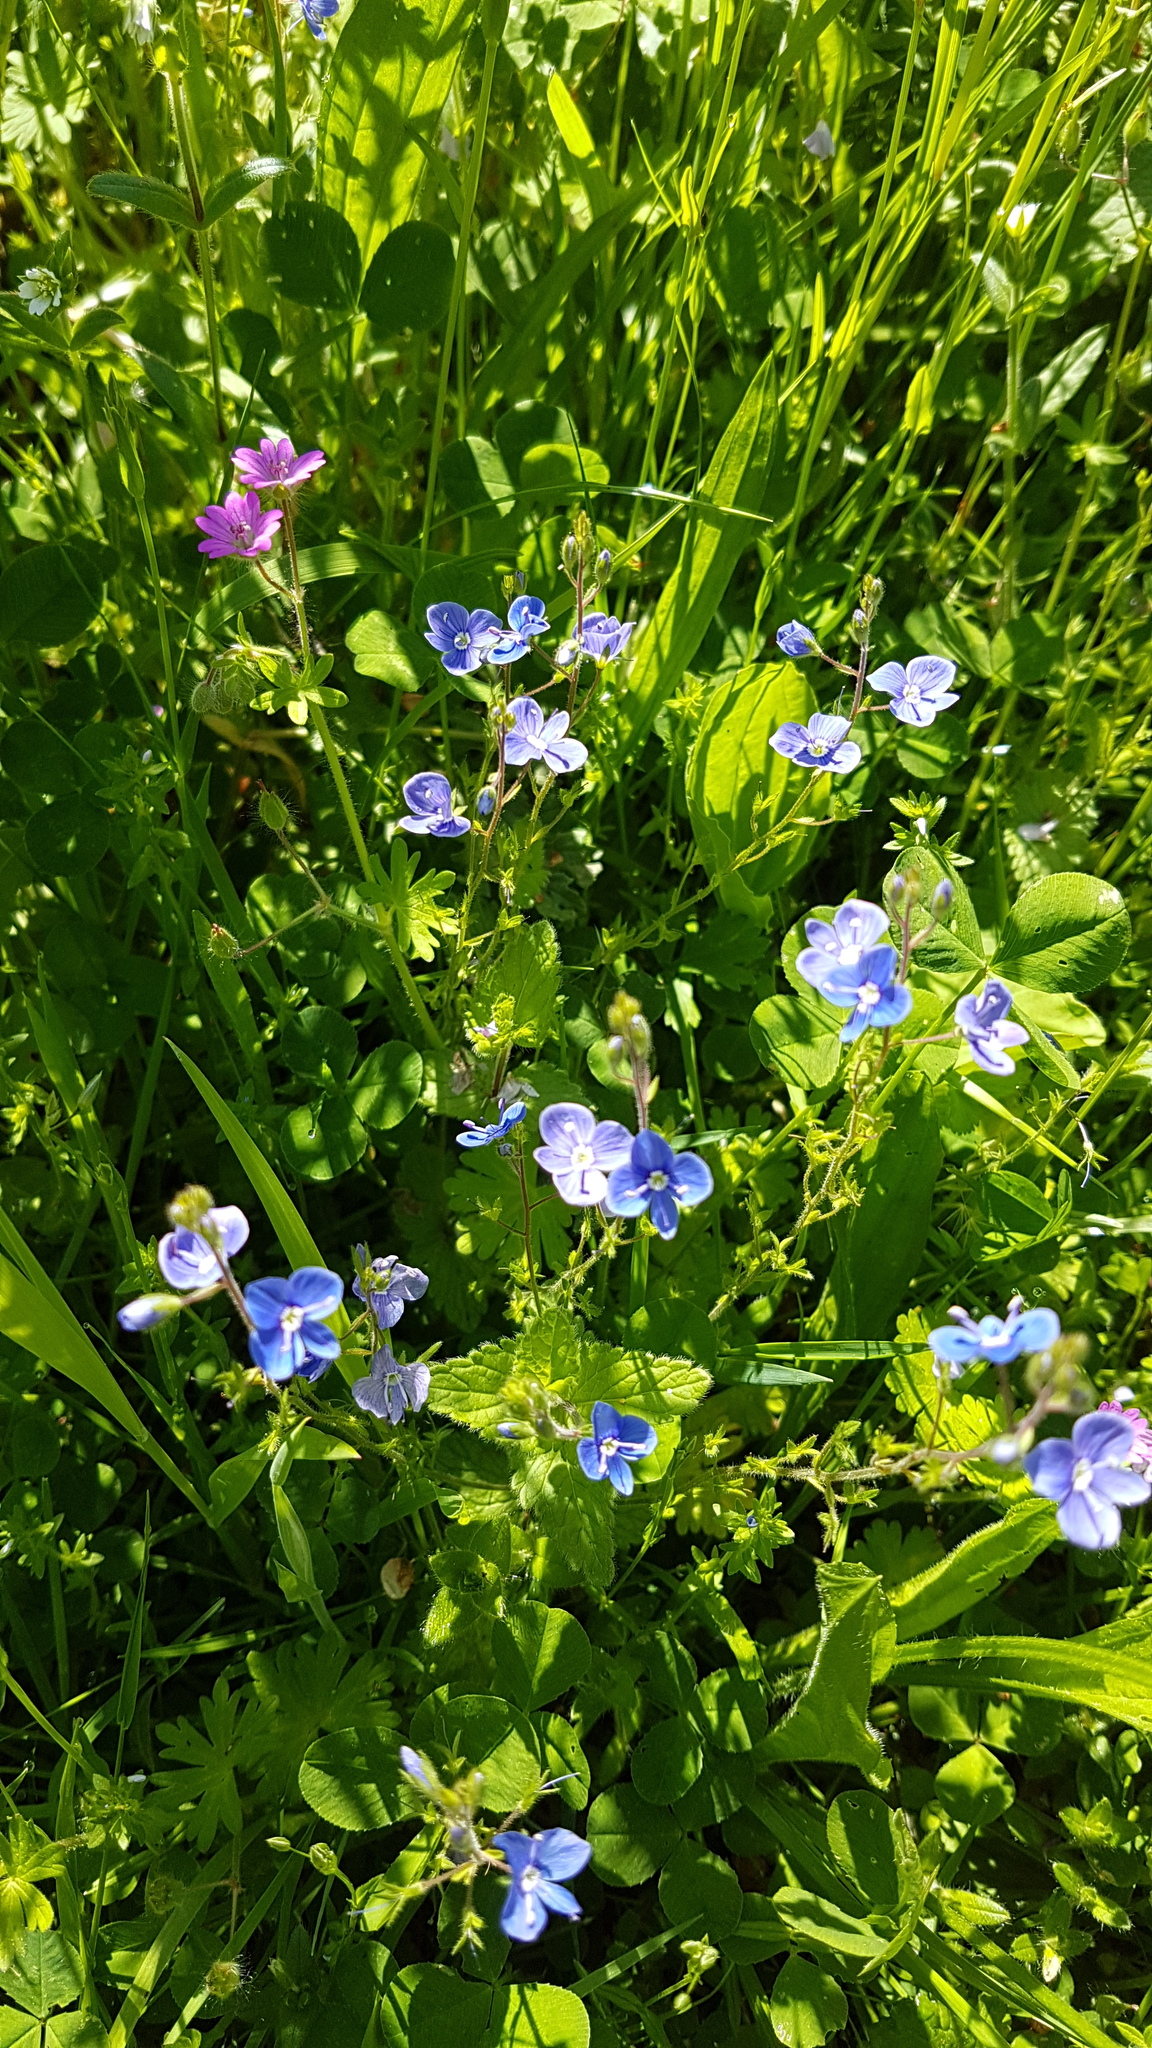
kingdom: Plantae
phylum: Tracheophyta
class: Magnoliopsida
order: Lamiales
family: Plantaginaceae
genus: Veronica
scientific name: Veronica chamaedrys
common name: Germander speedwell
